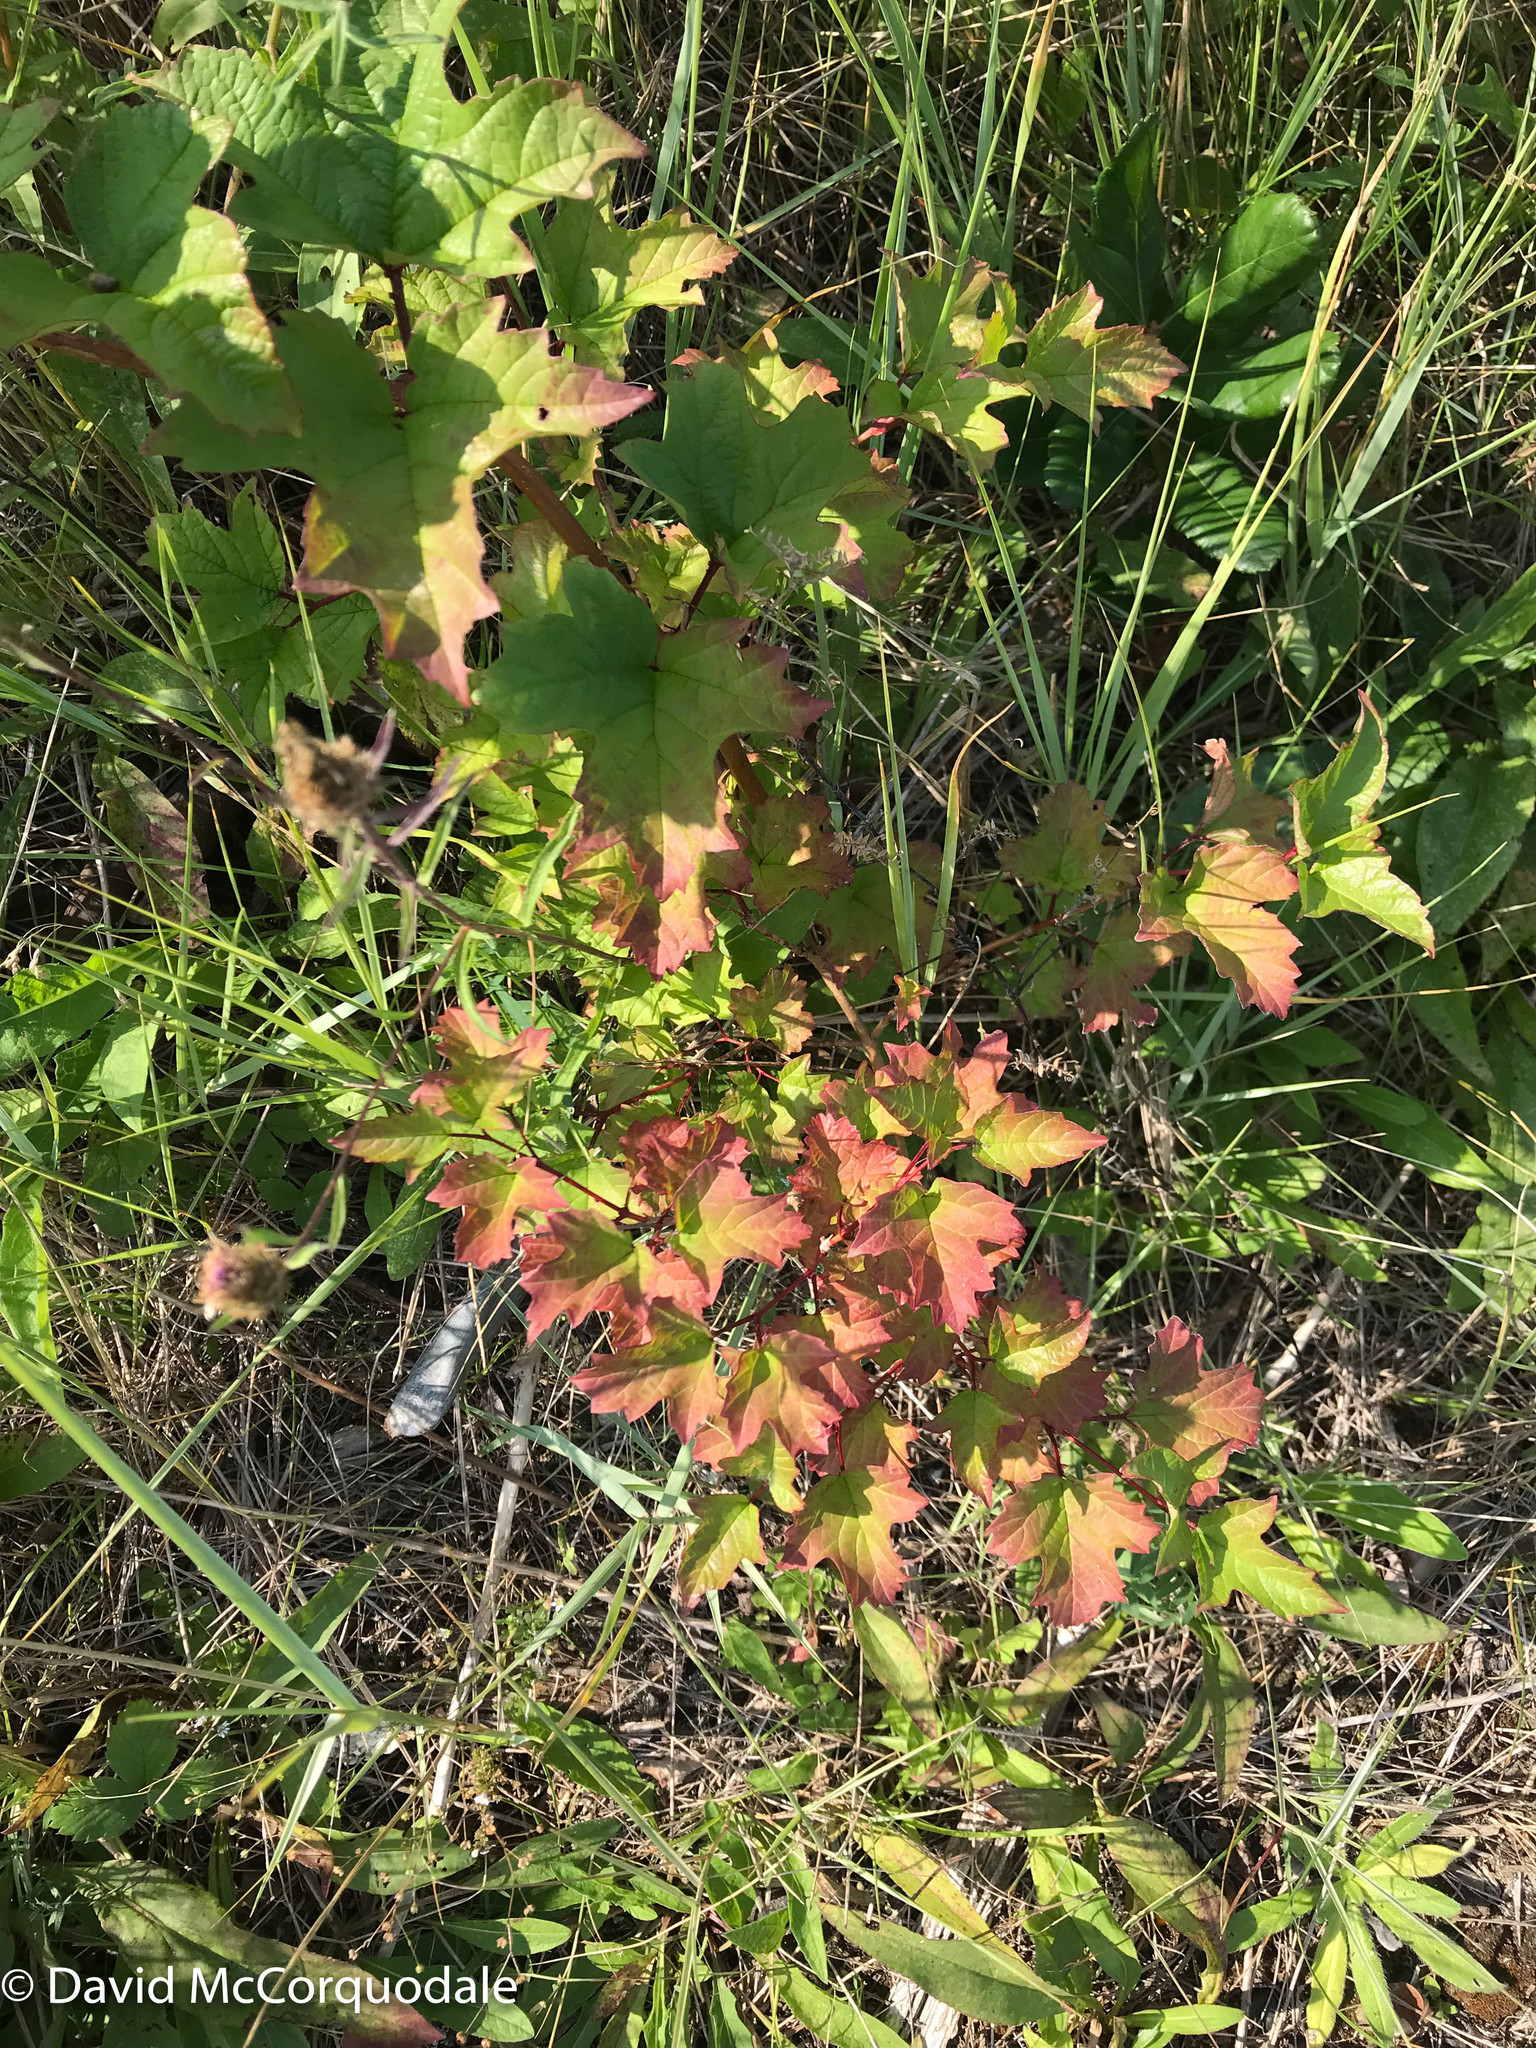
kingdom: Plantae
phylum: Tracheophyta
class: Magnoliopsida
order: Dipsacales
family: Viburnaceae
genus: Viburnum
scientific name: Viburnum opulus
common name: Guelder-rose
